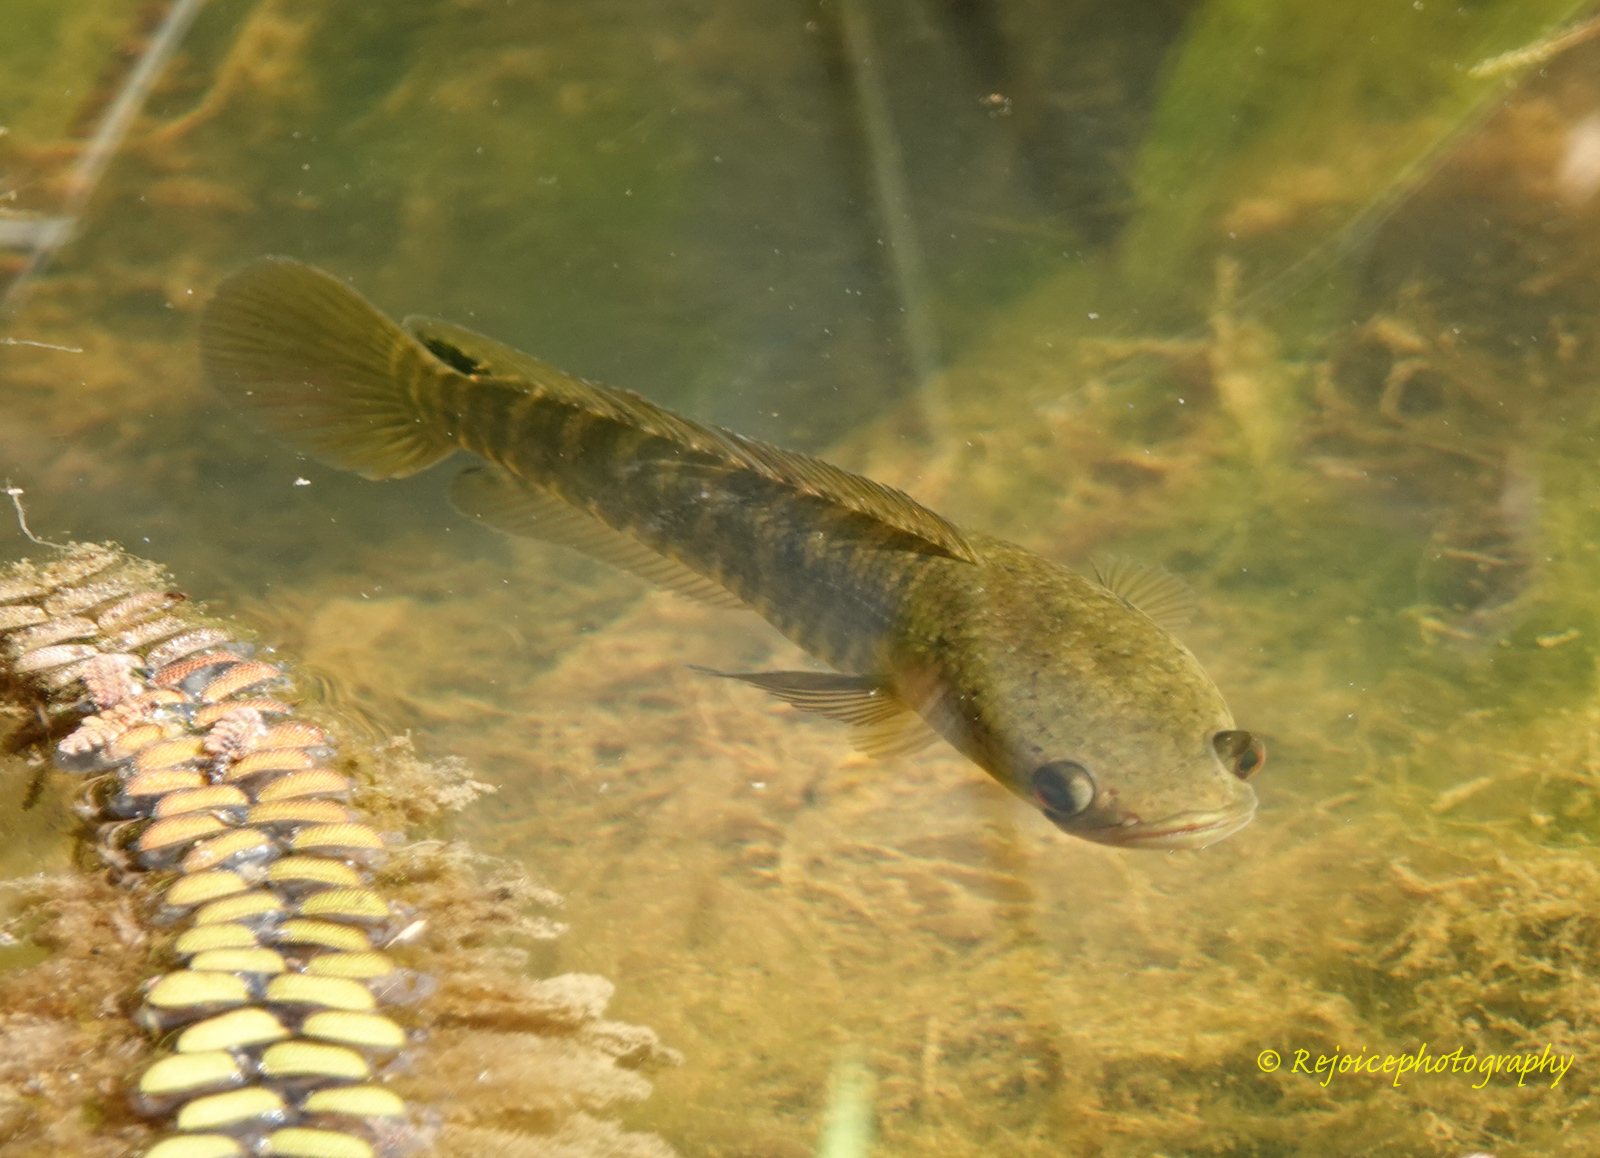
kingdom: Animalia
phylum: Chordata
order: Perciformes
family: Channidae
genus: Channa
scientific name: Channa striata
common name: Striped snakehead
